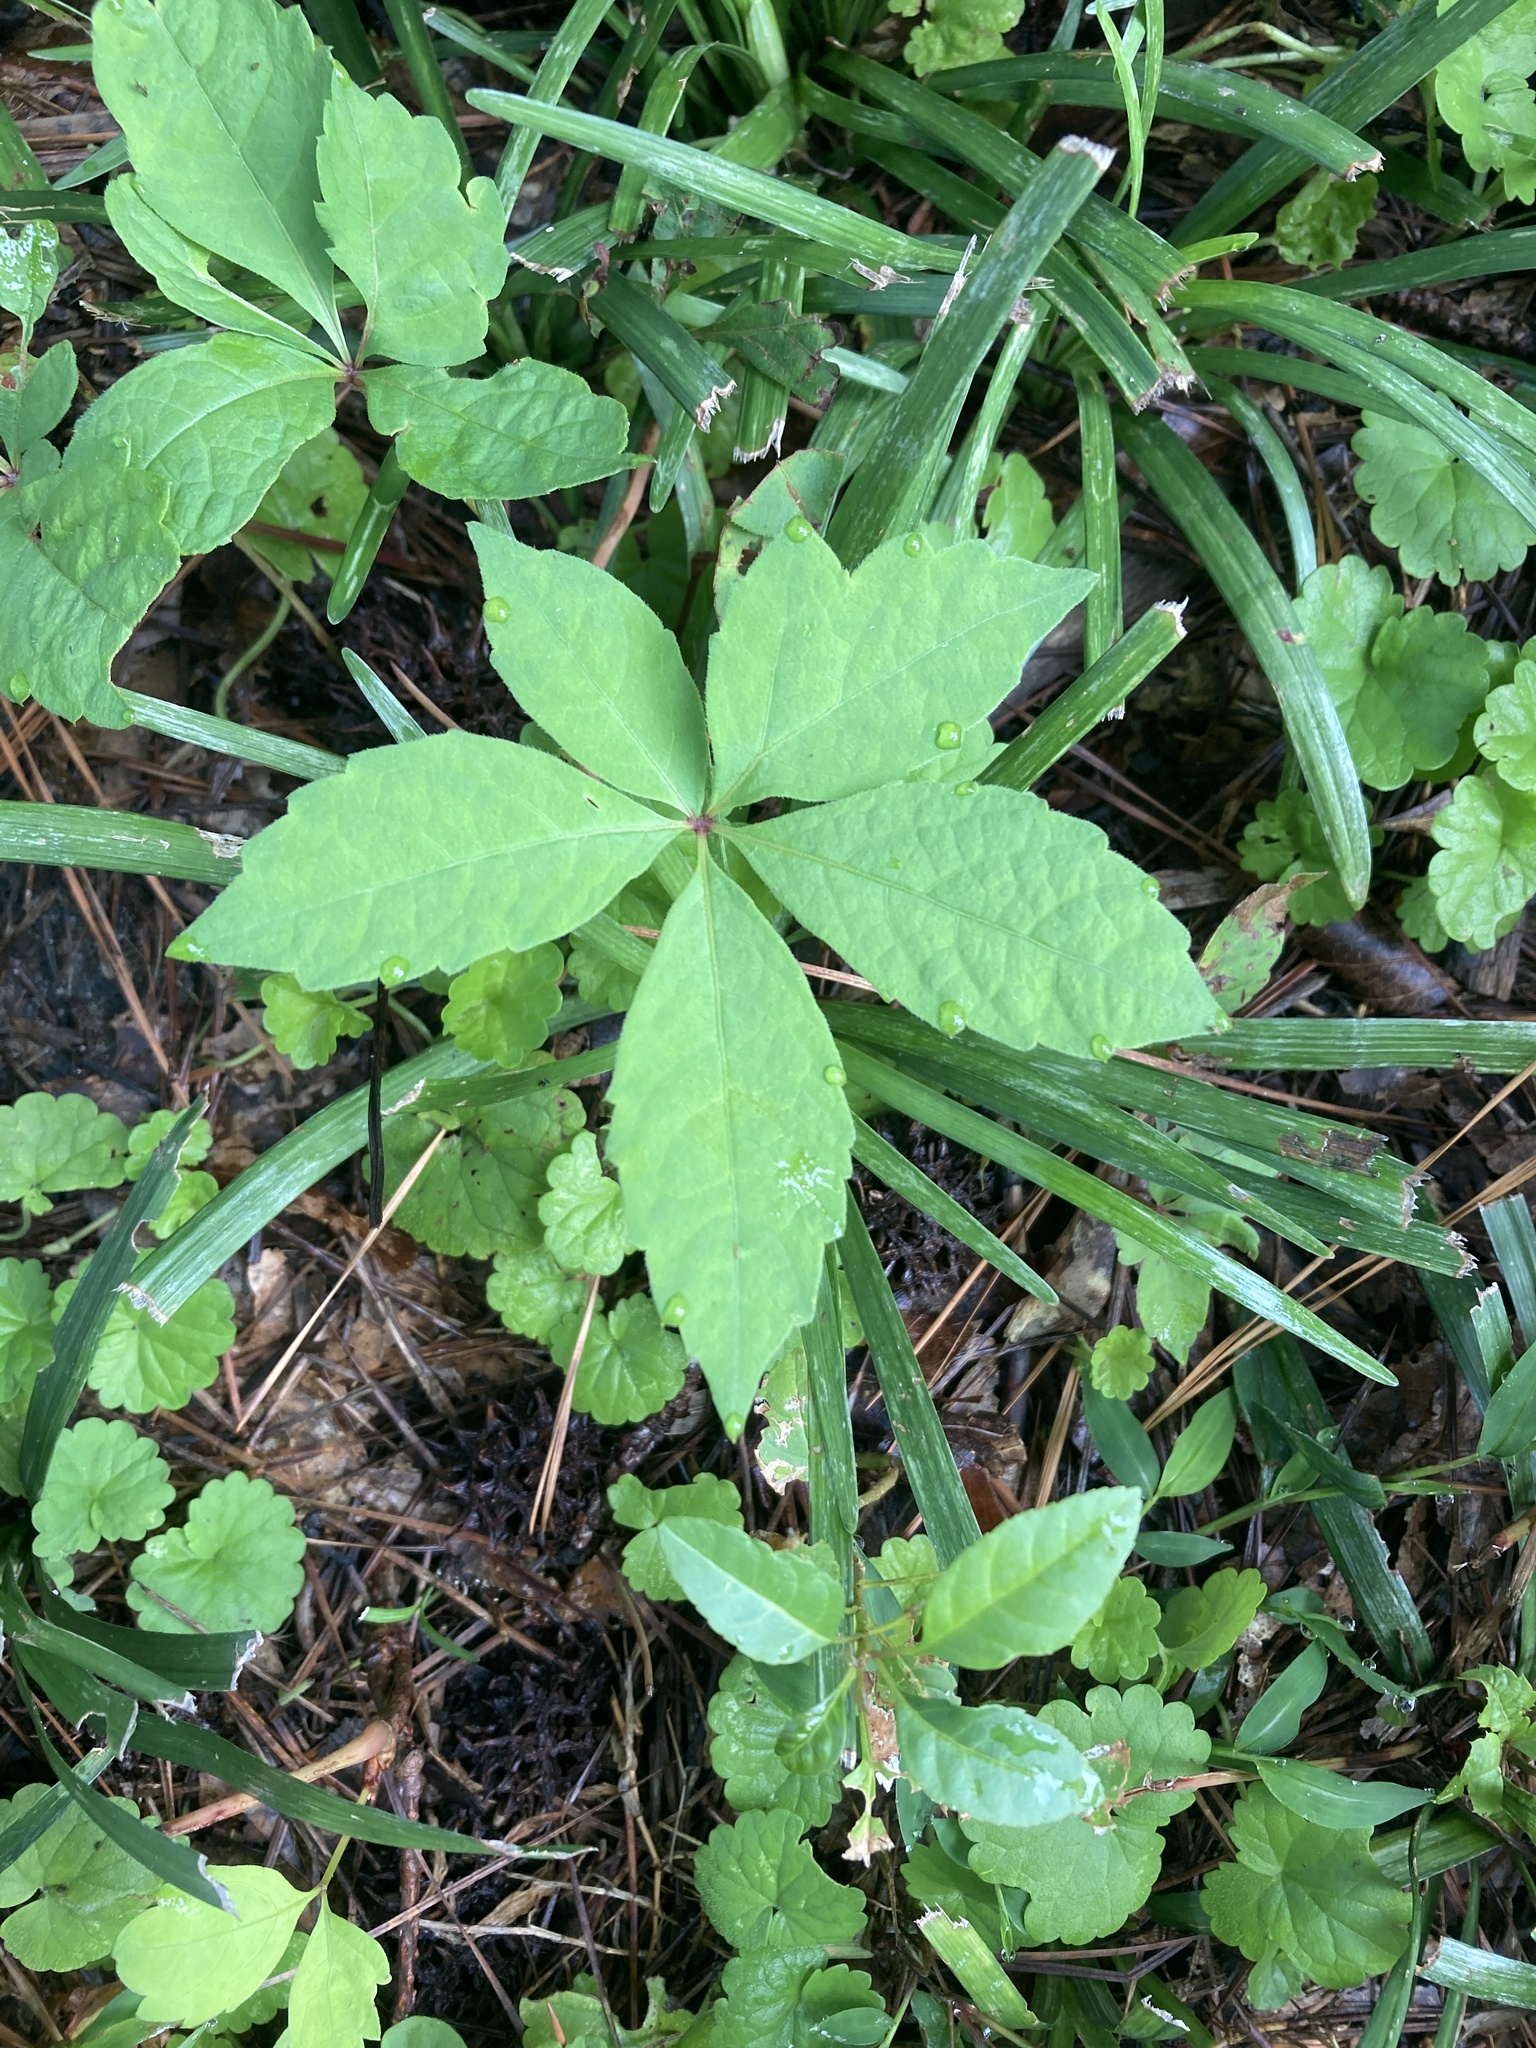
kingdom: Plantae
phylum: Tracheophyta
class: Magnoliopsida
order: Vitales
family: Vitaceae
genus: Parthenocissus
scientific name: Parthenocissus quinquefolia
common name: Virginia-creeper
